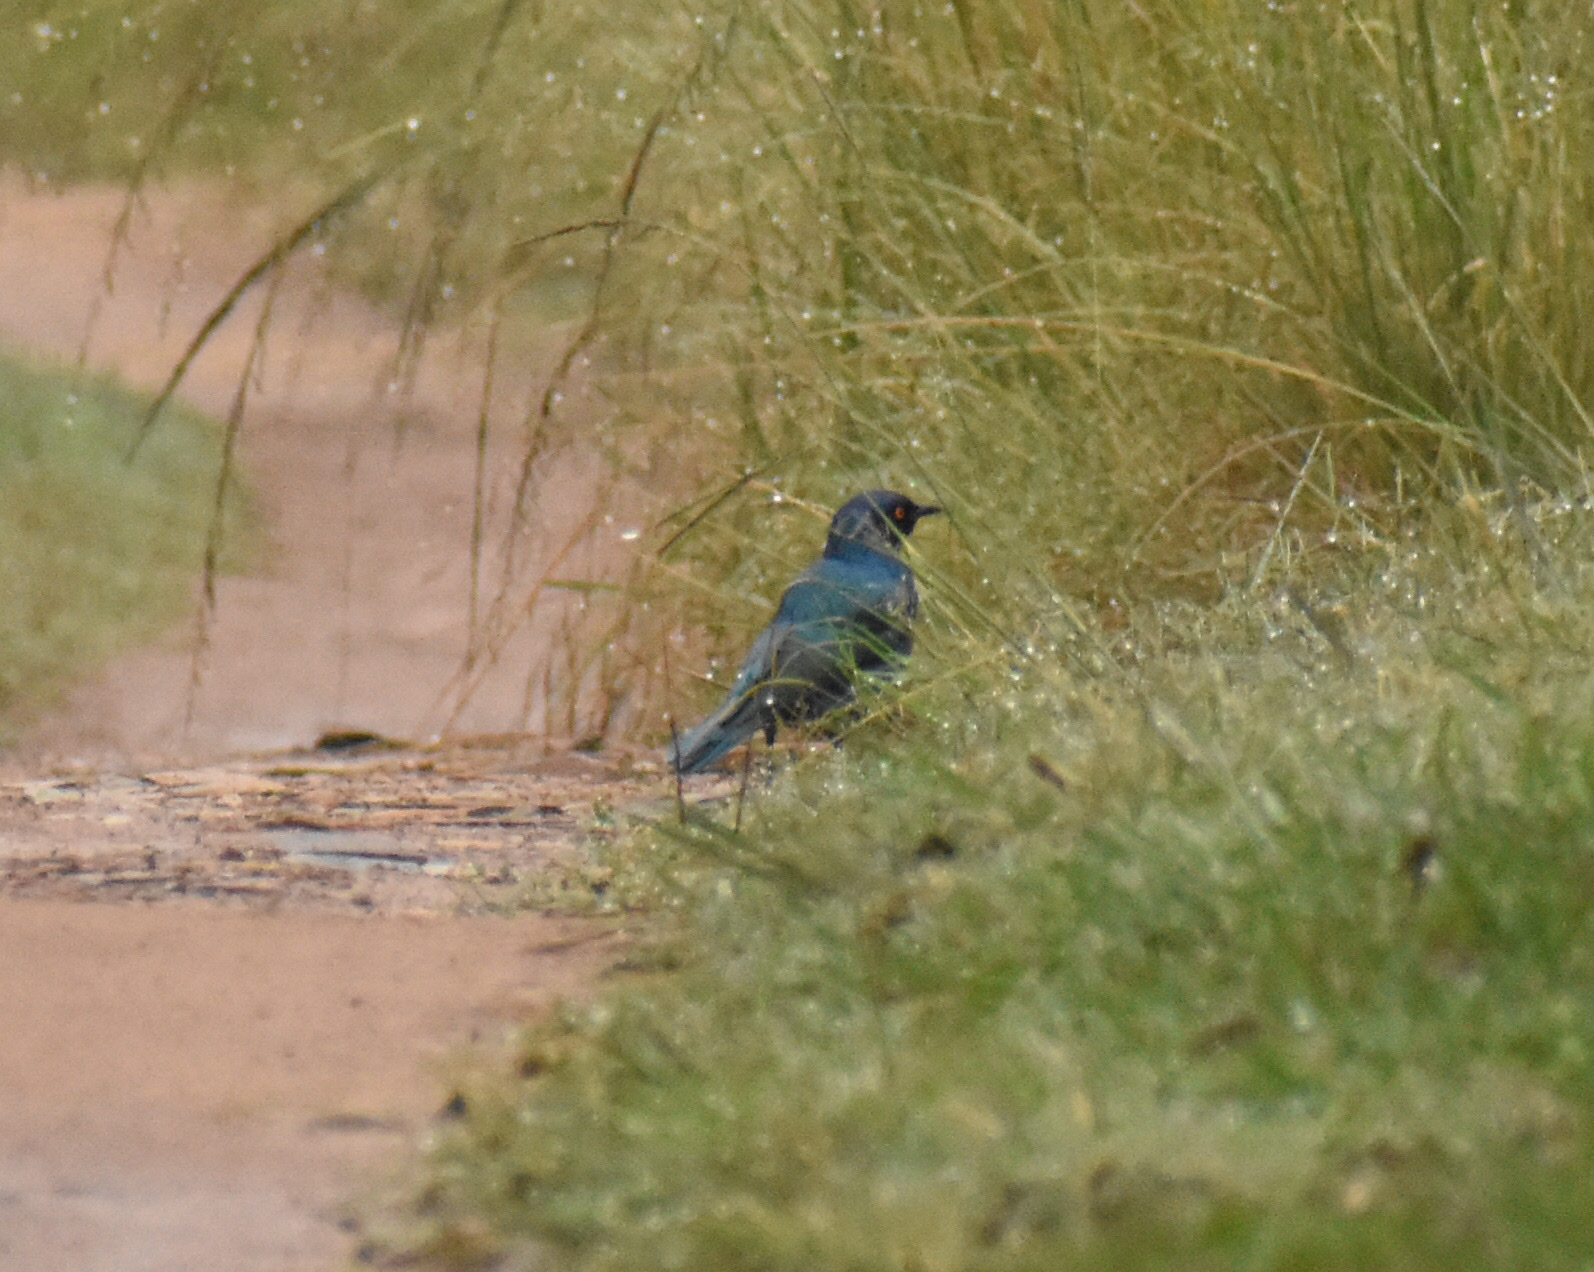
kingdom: Animalia
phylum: Chordata
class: Aves
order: Passeriformes
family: Sturnidae
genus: Lamprotornis
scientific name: Lamprotornis nitens
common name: Cape starling
